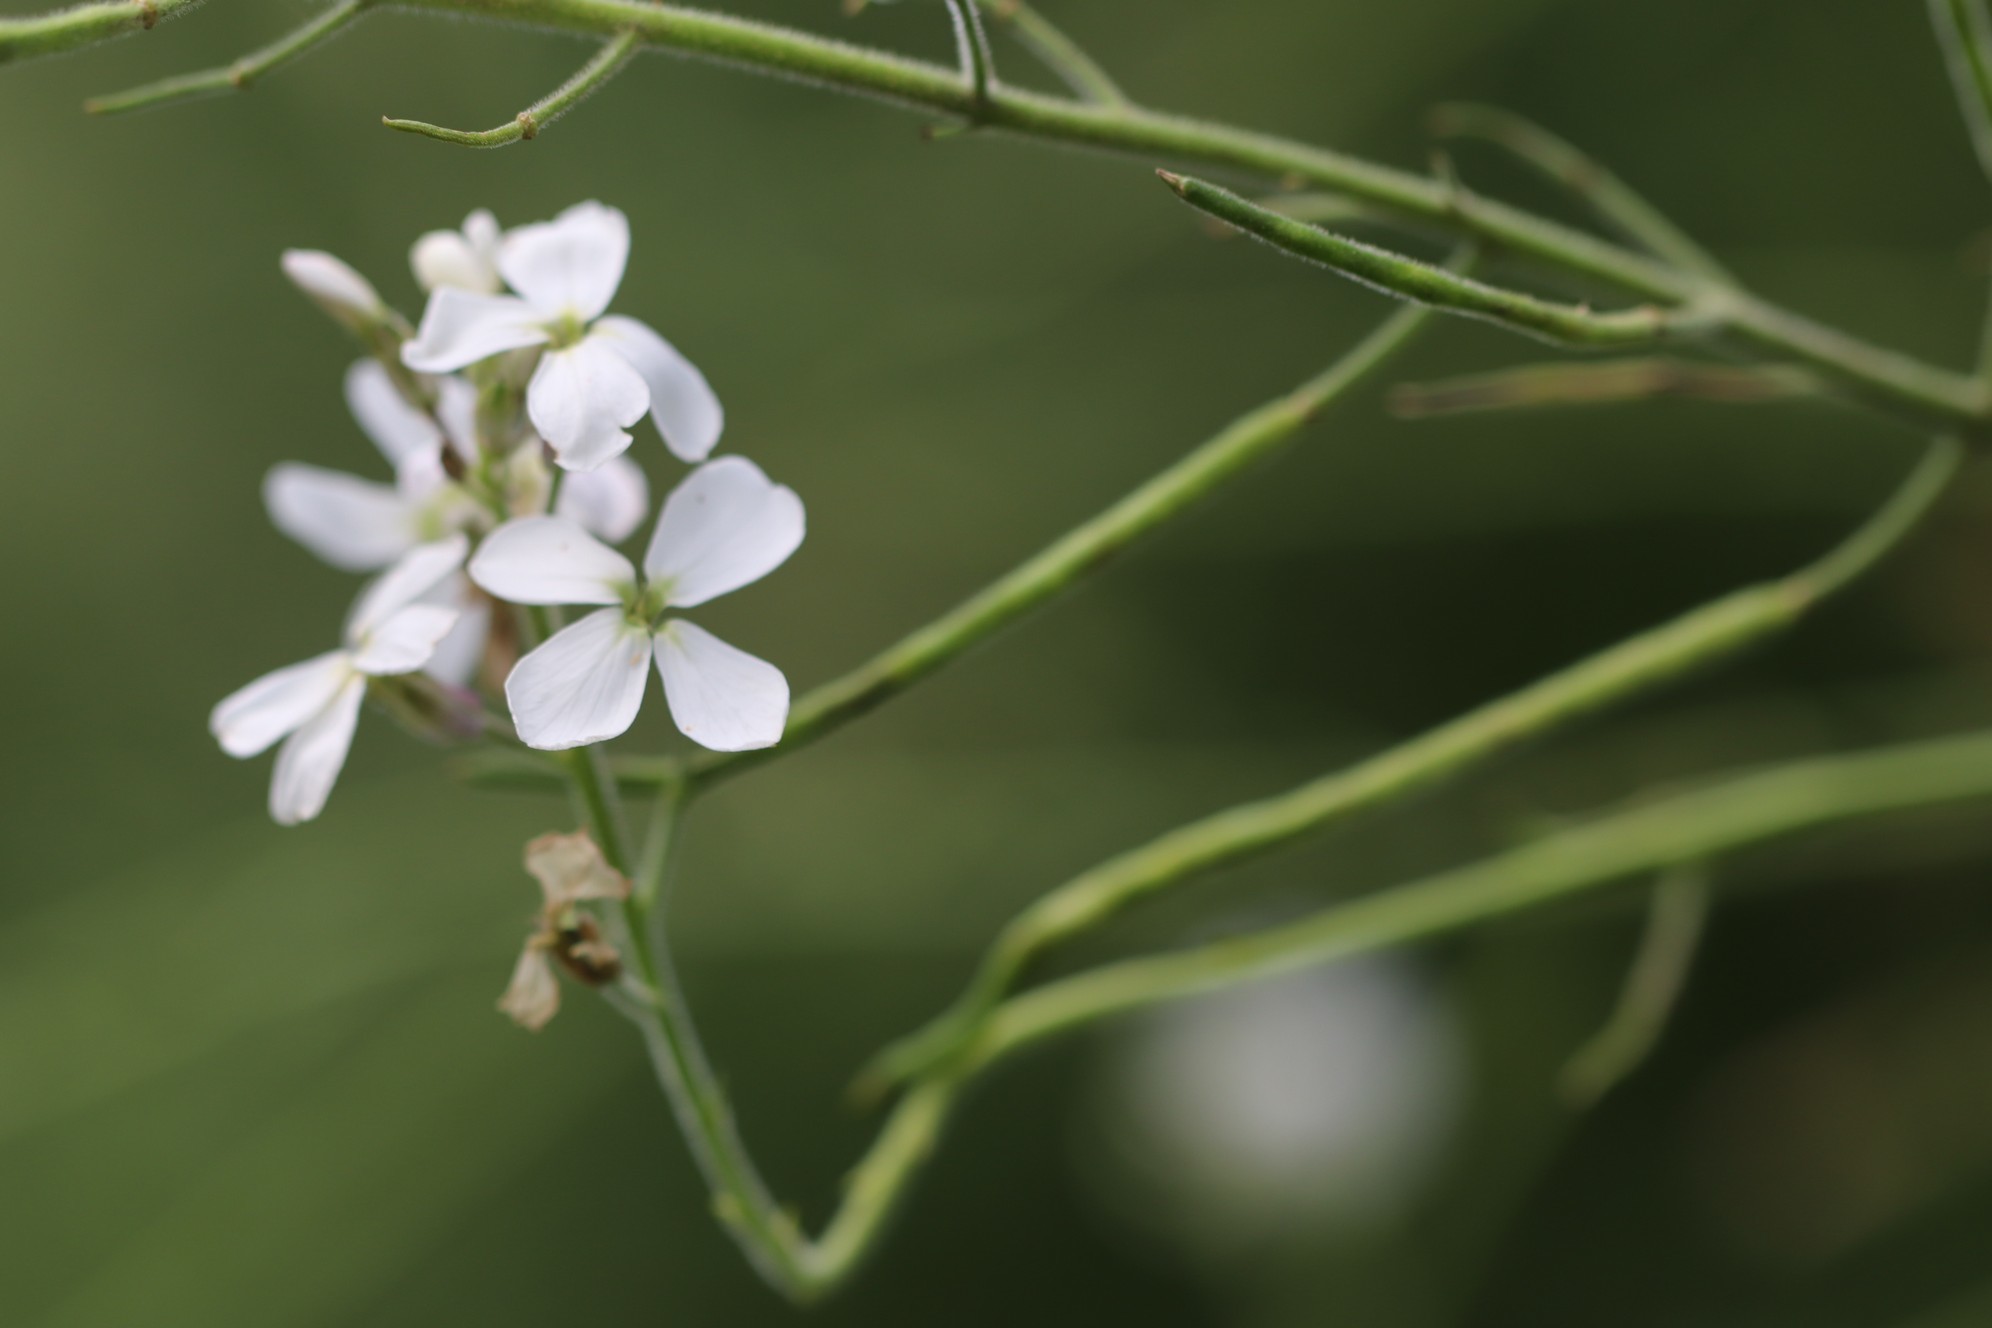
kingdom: Plantae
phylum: Tracheophyta
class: Magnoliopsida
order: Brassicales
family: Brassicaceae
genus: Hesperis
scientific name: Hesperis sibirica
